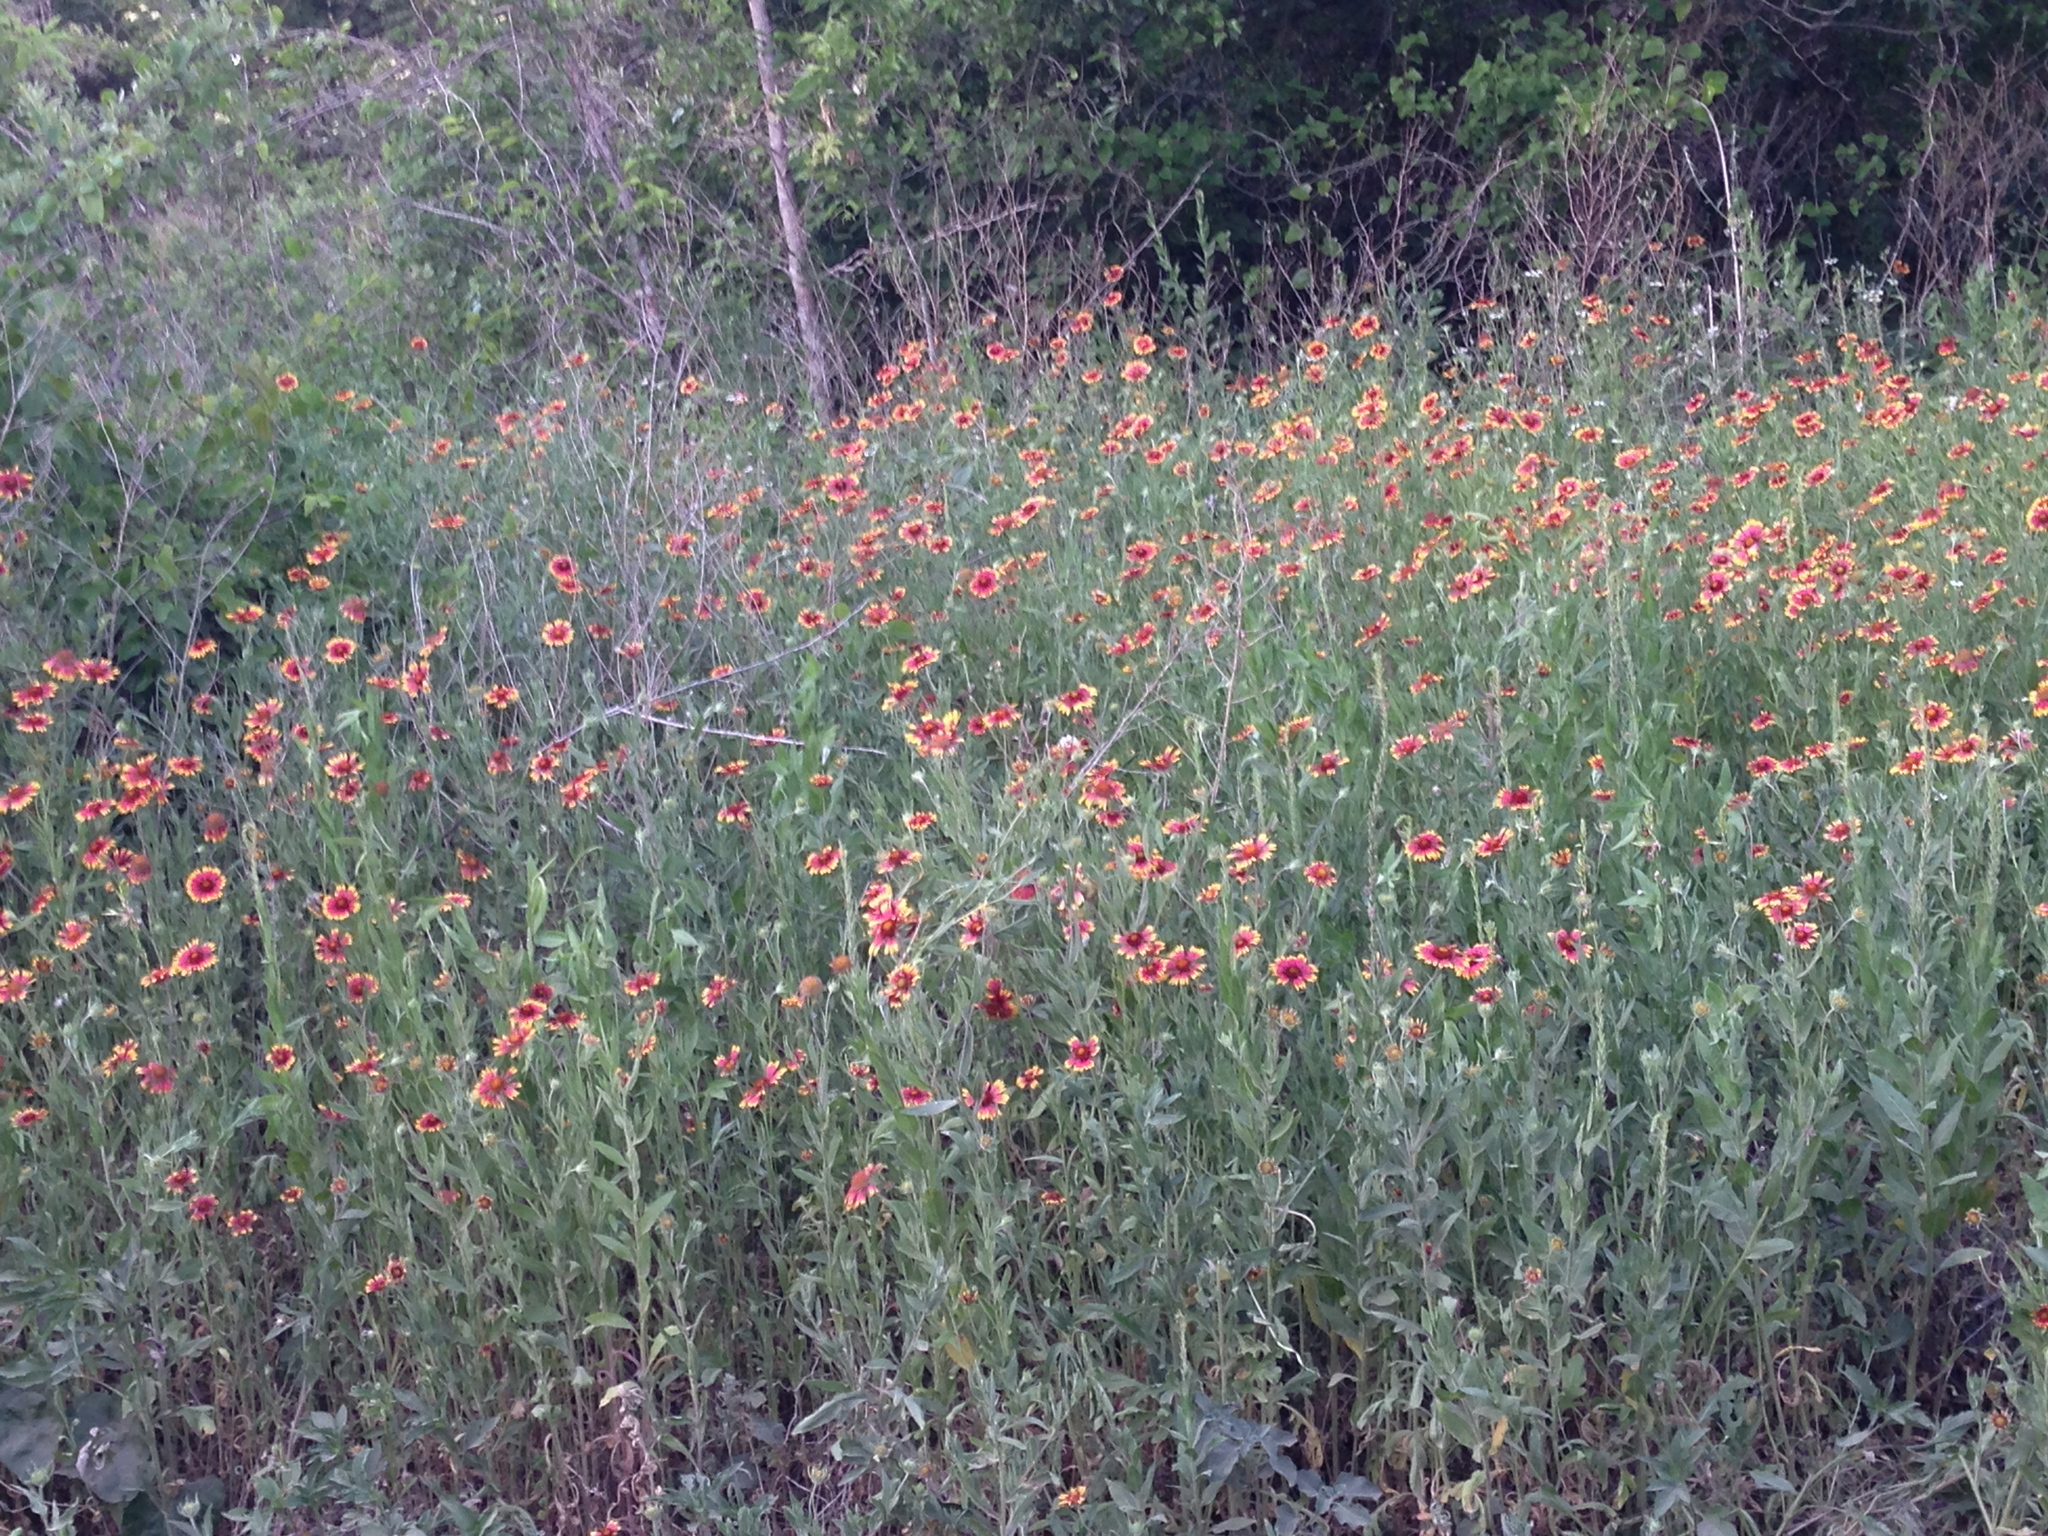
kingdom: Plantae
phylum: Tracheophyta
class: Magnoliopsida
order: Asterales
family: Asteraceae
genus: Gaillardia
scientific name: Gaillardia pulchella
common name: Firewheel
